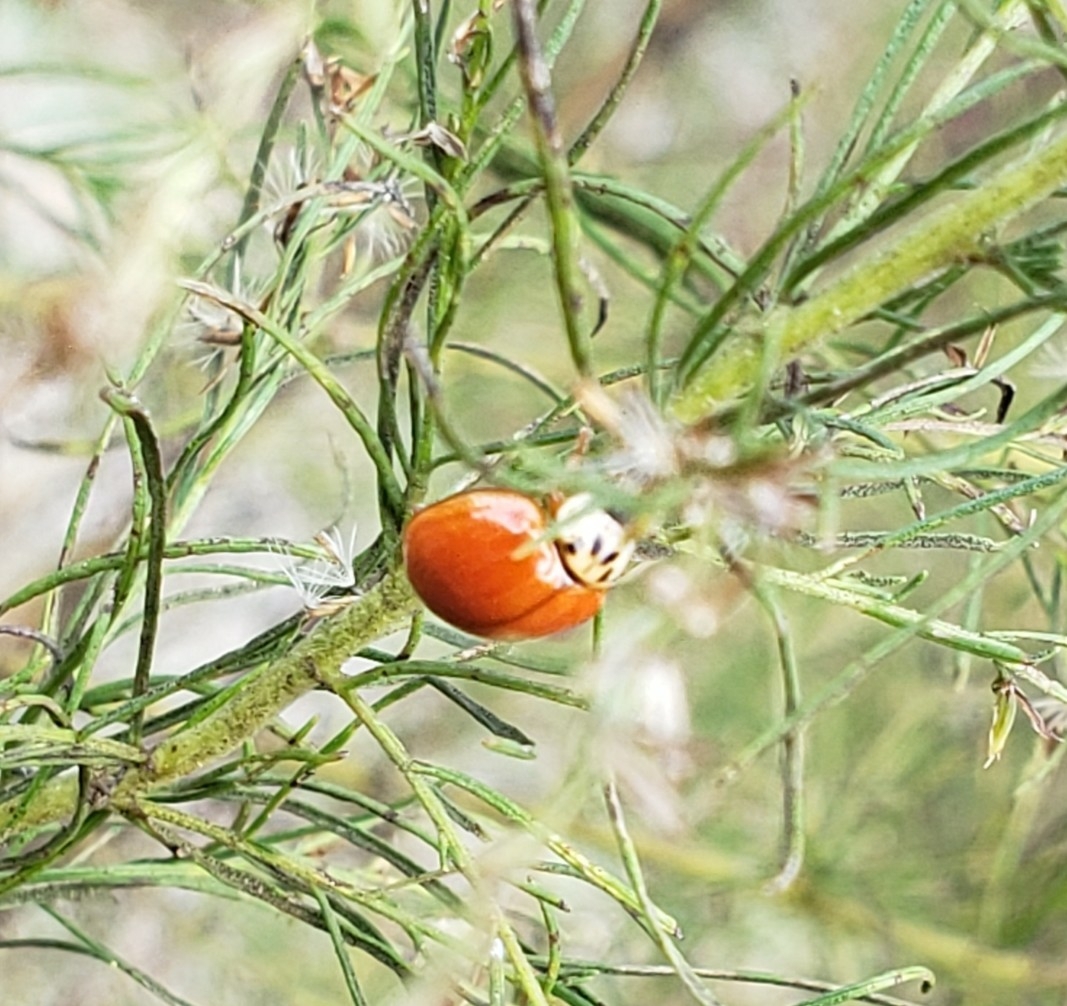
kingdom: Animalia
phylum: Arthropoda
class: Insecta
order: Coleoptera
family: Coccinellidae
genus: Harmonia
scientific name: Harmonia axyridis
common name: Harlequin ladybird
